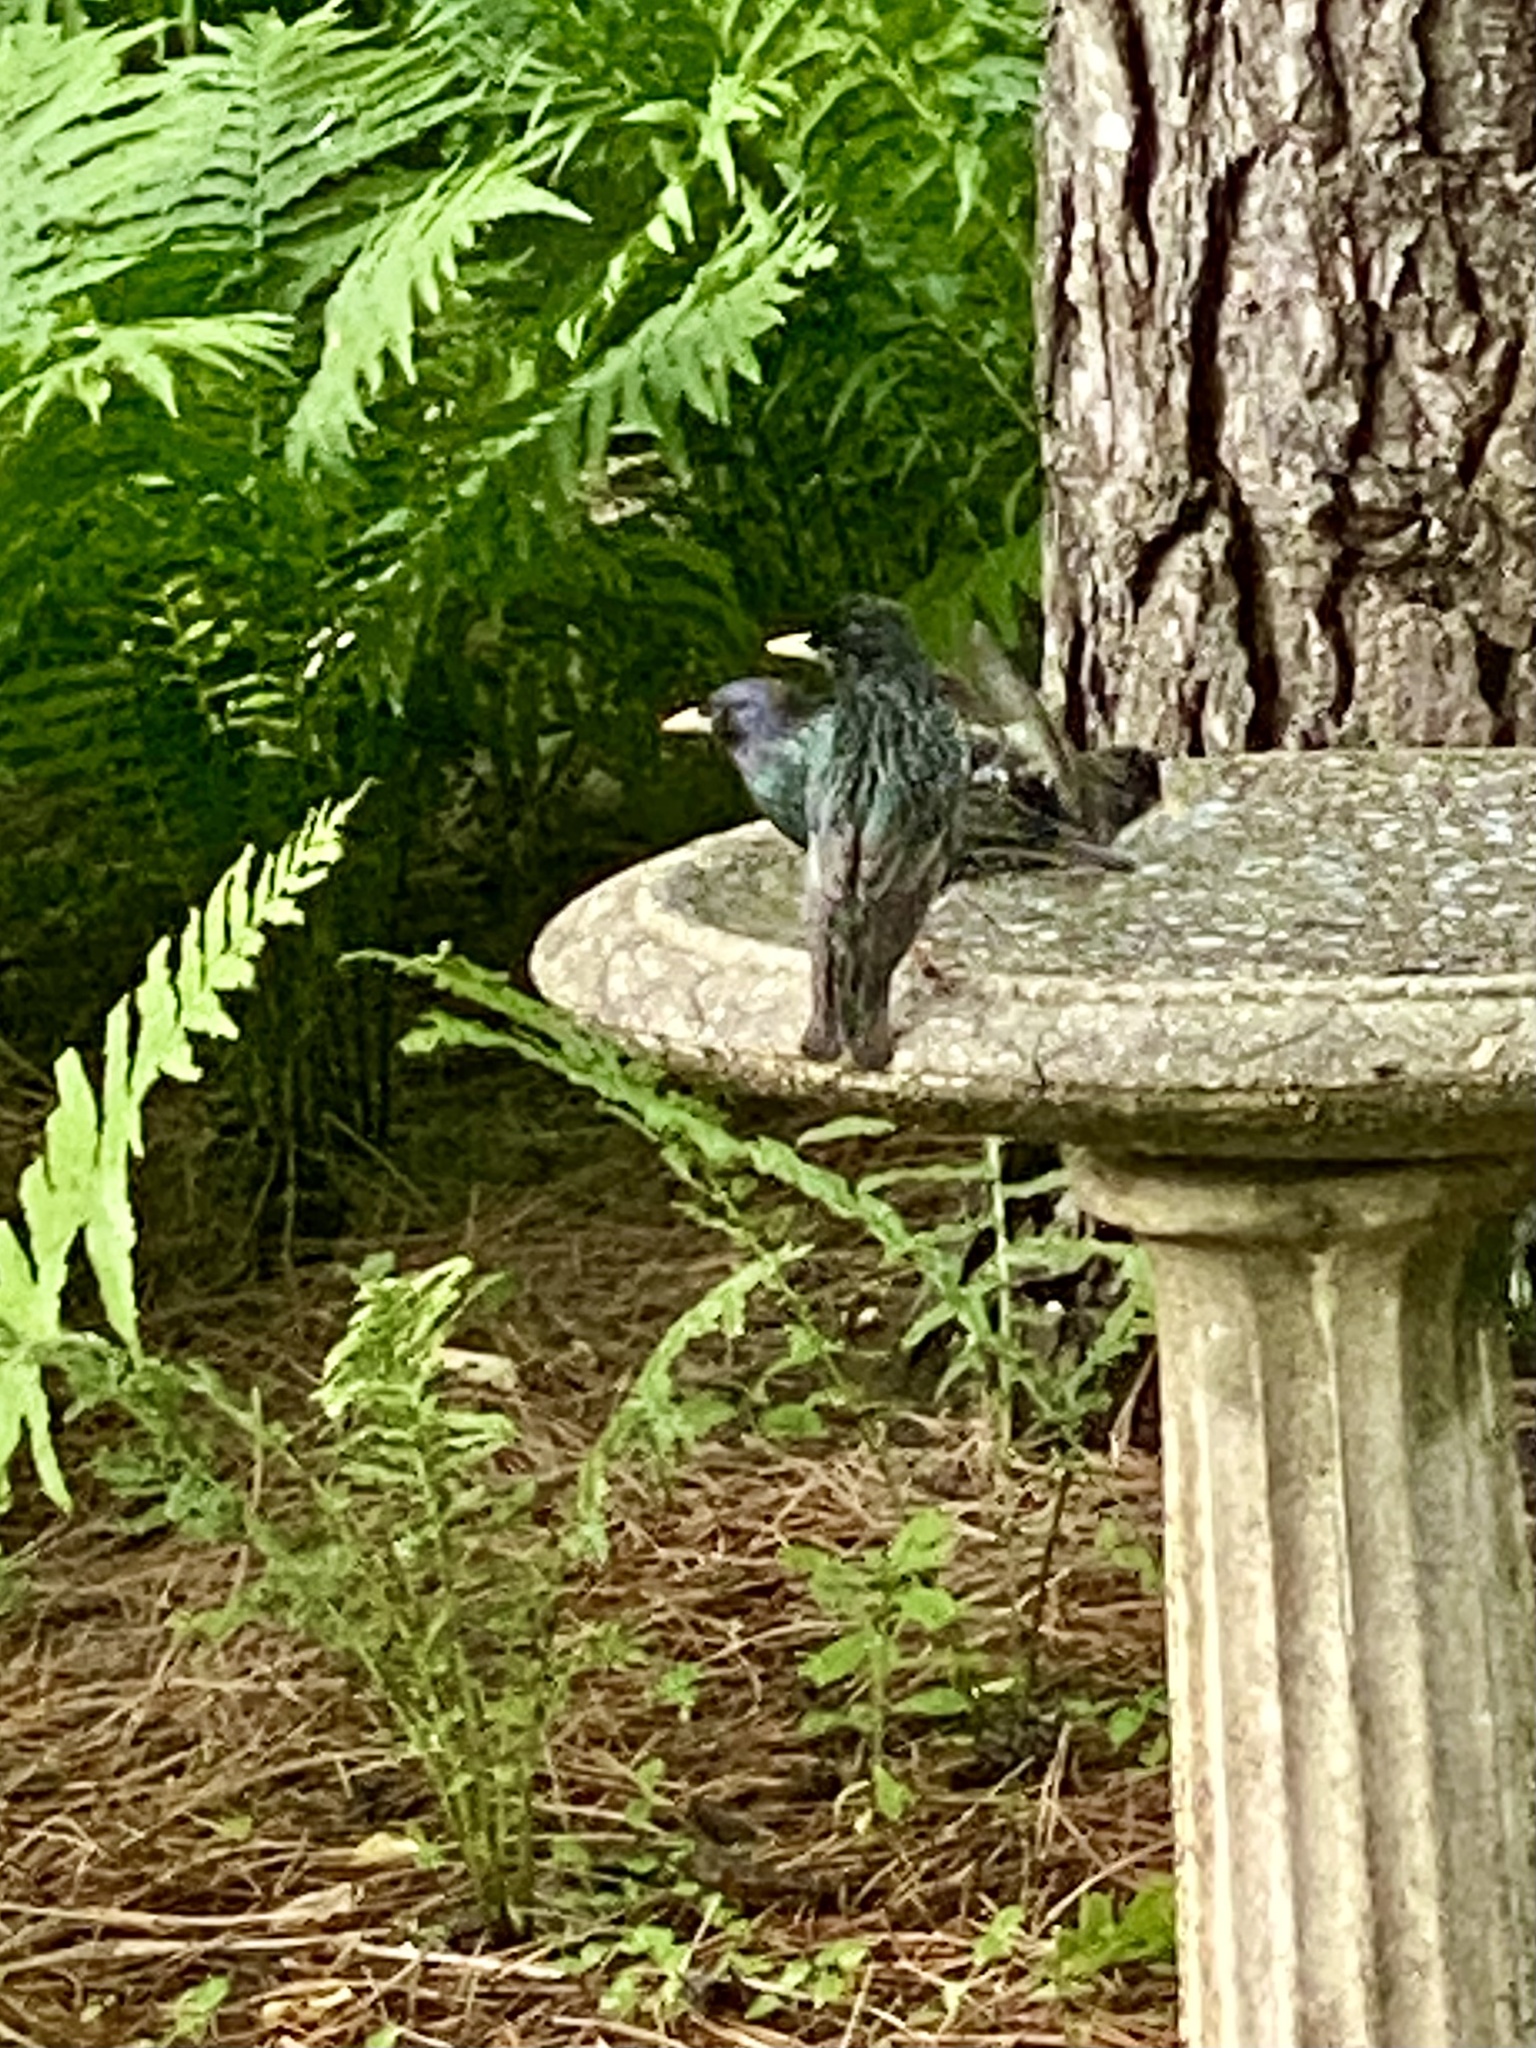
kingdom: Animalia
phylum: Chordata
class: Aves
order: Passeriformes
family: Sturnidae
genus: Sturnus
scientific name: Sturnus vulgaris
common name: Common starling
